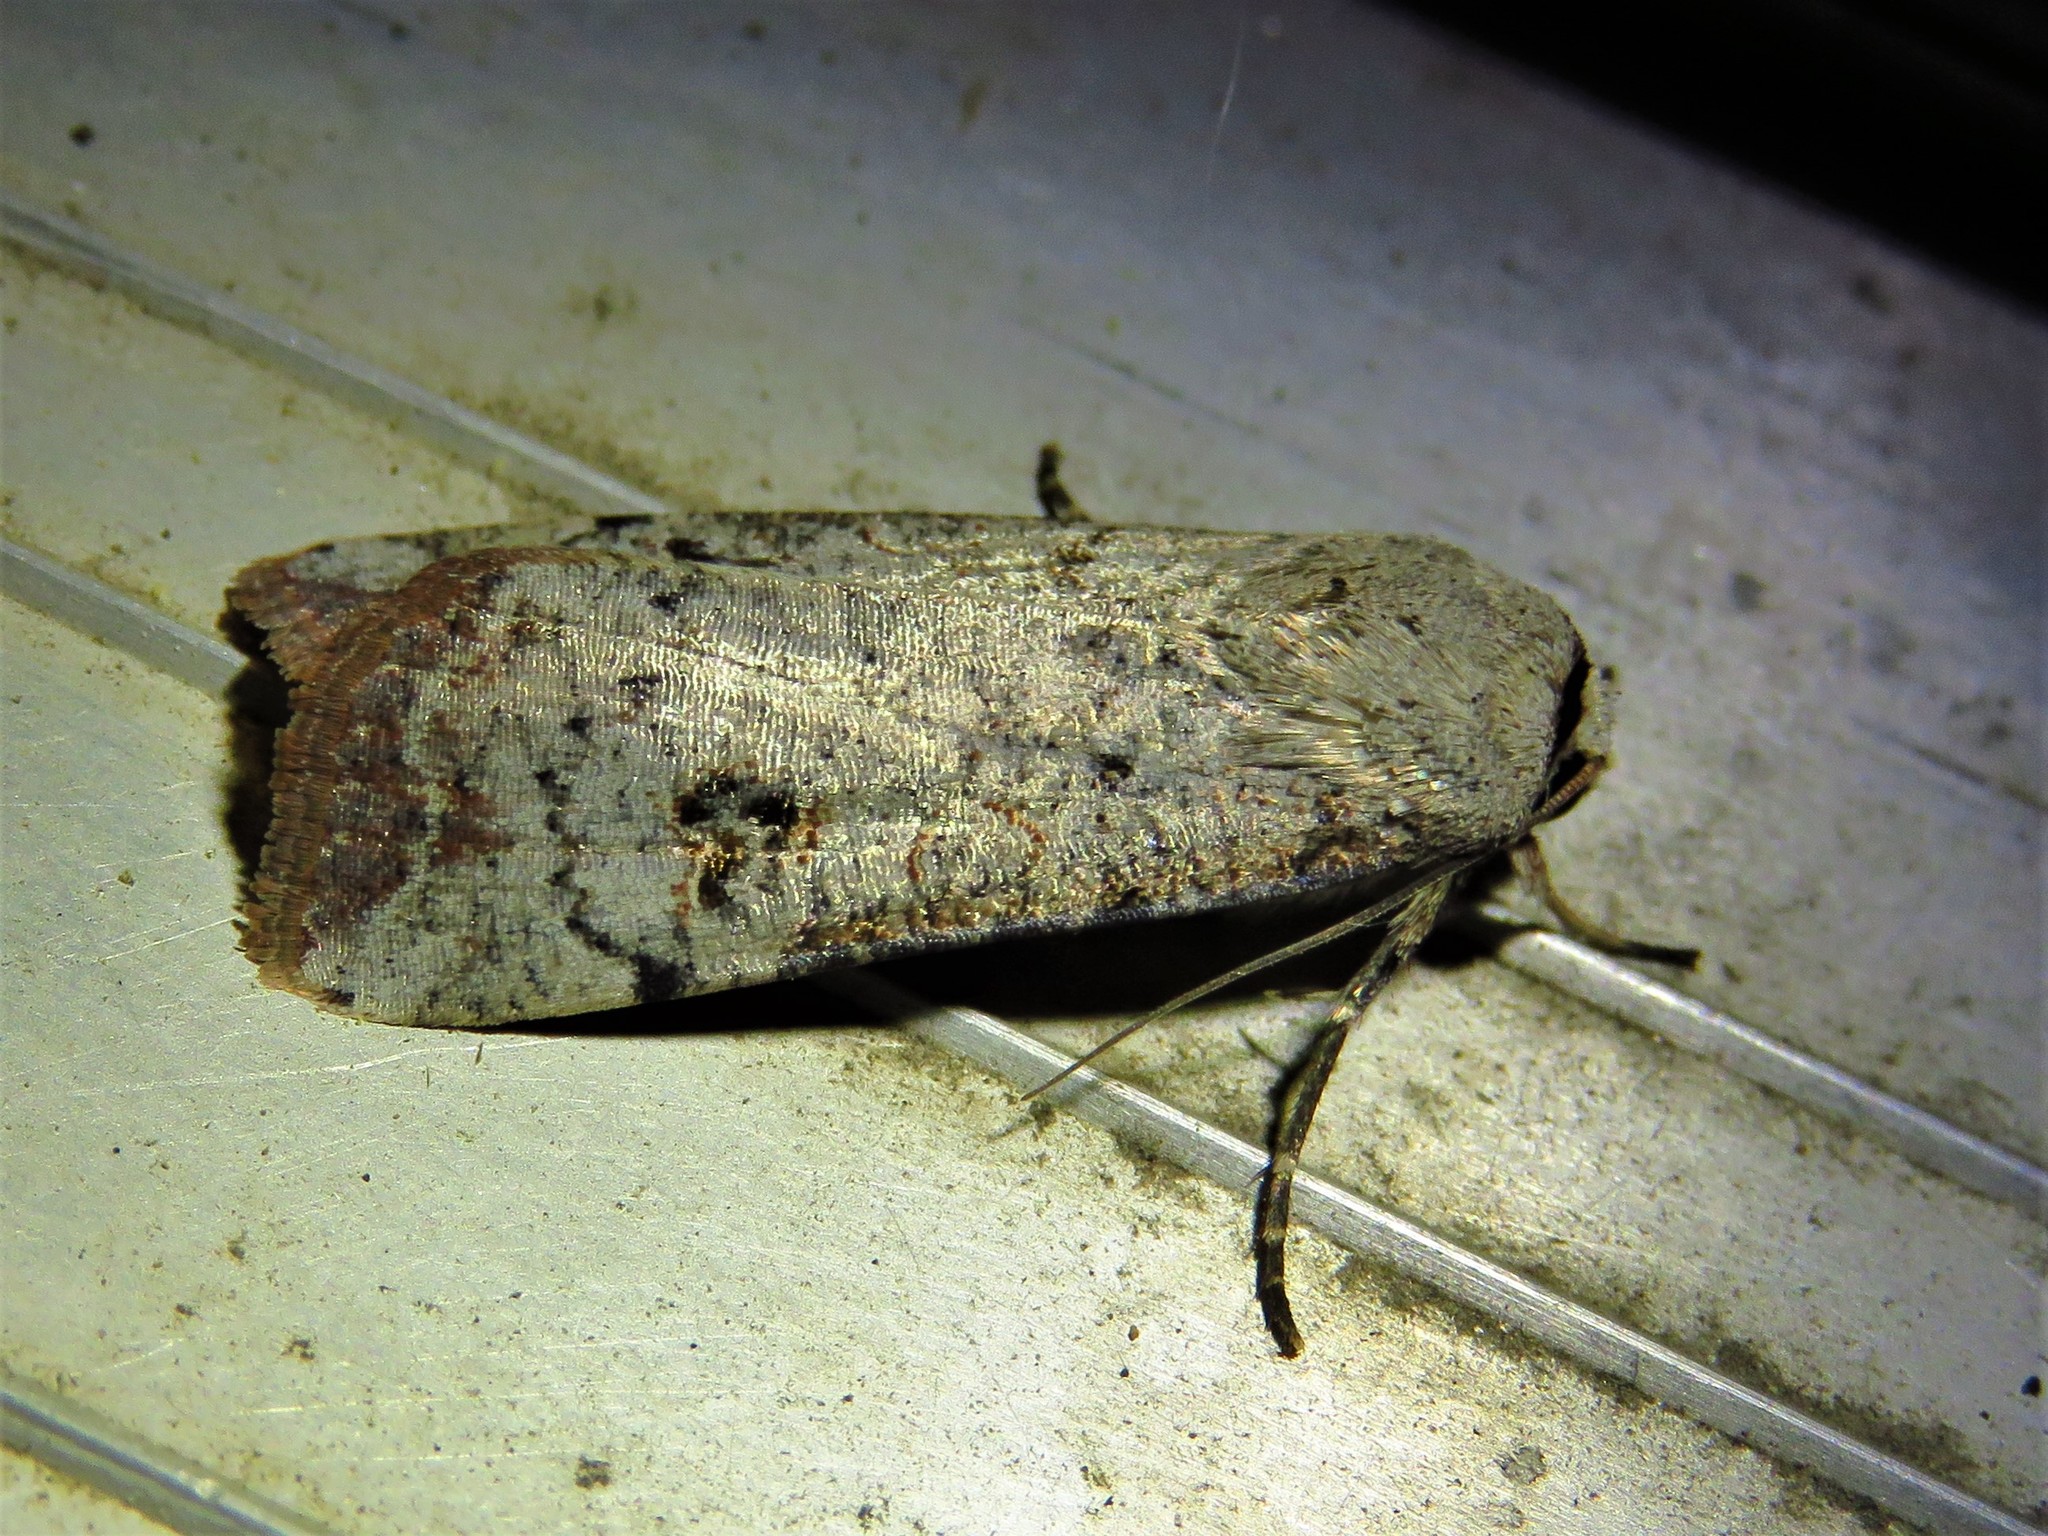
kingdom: Animalia
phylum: Arthropoda
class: Insecta
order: Lepidoptera
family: Noctuidae
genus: Anicla
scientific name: Anicla infecta
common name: Green cutworm
